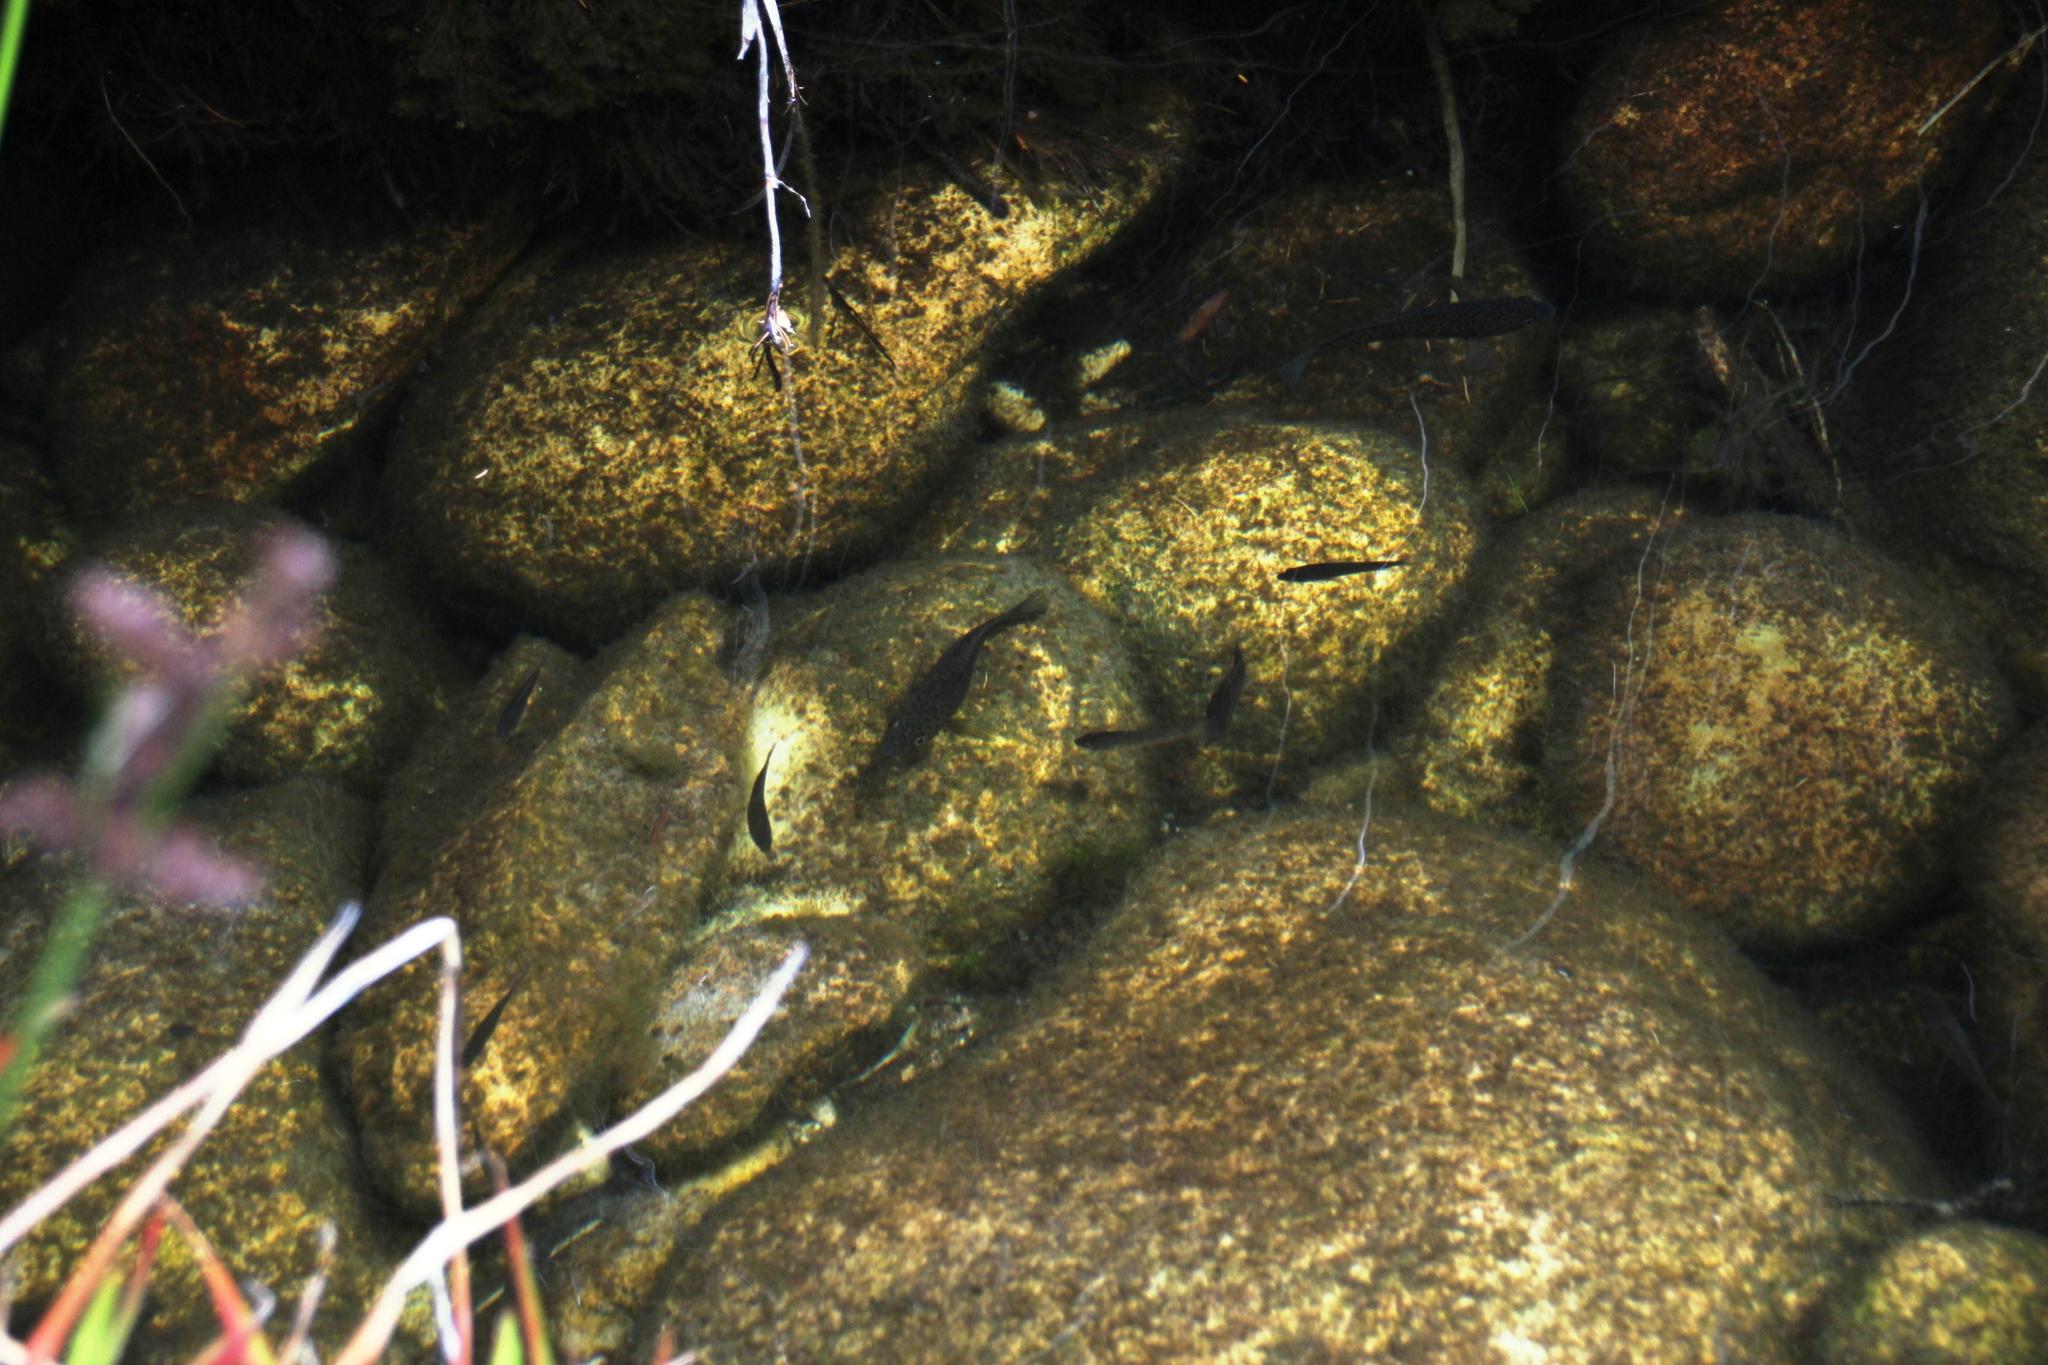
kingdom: Animalia
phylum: Chordata
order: Perciformes
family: Anabantidae
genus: Sandelia
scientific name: Sandelia capensis
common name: Cape kurper
